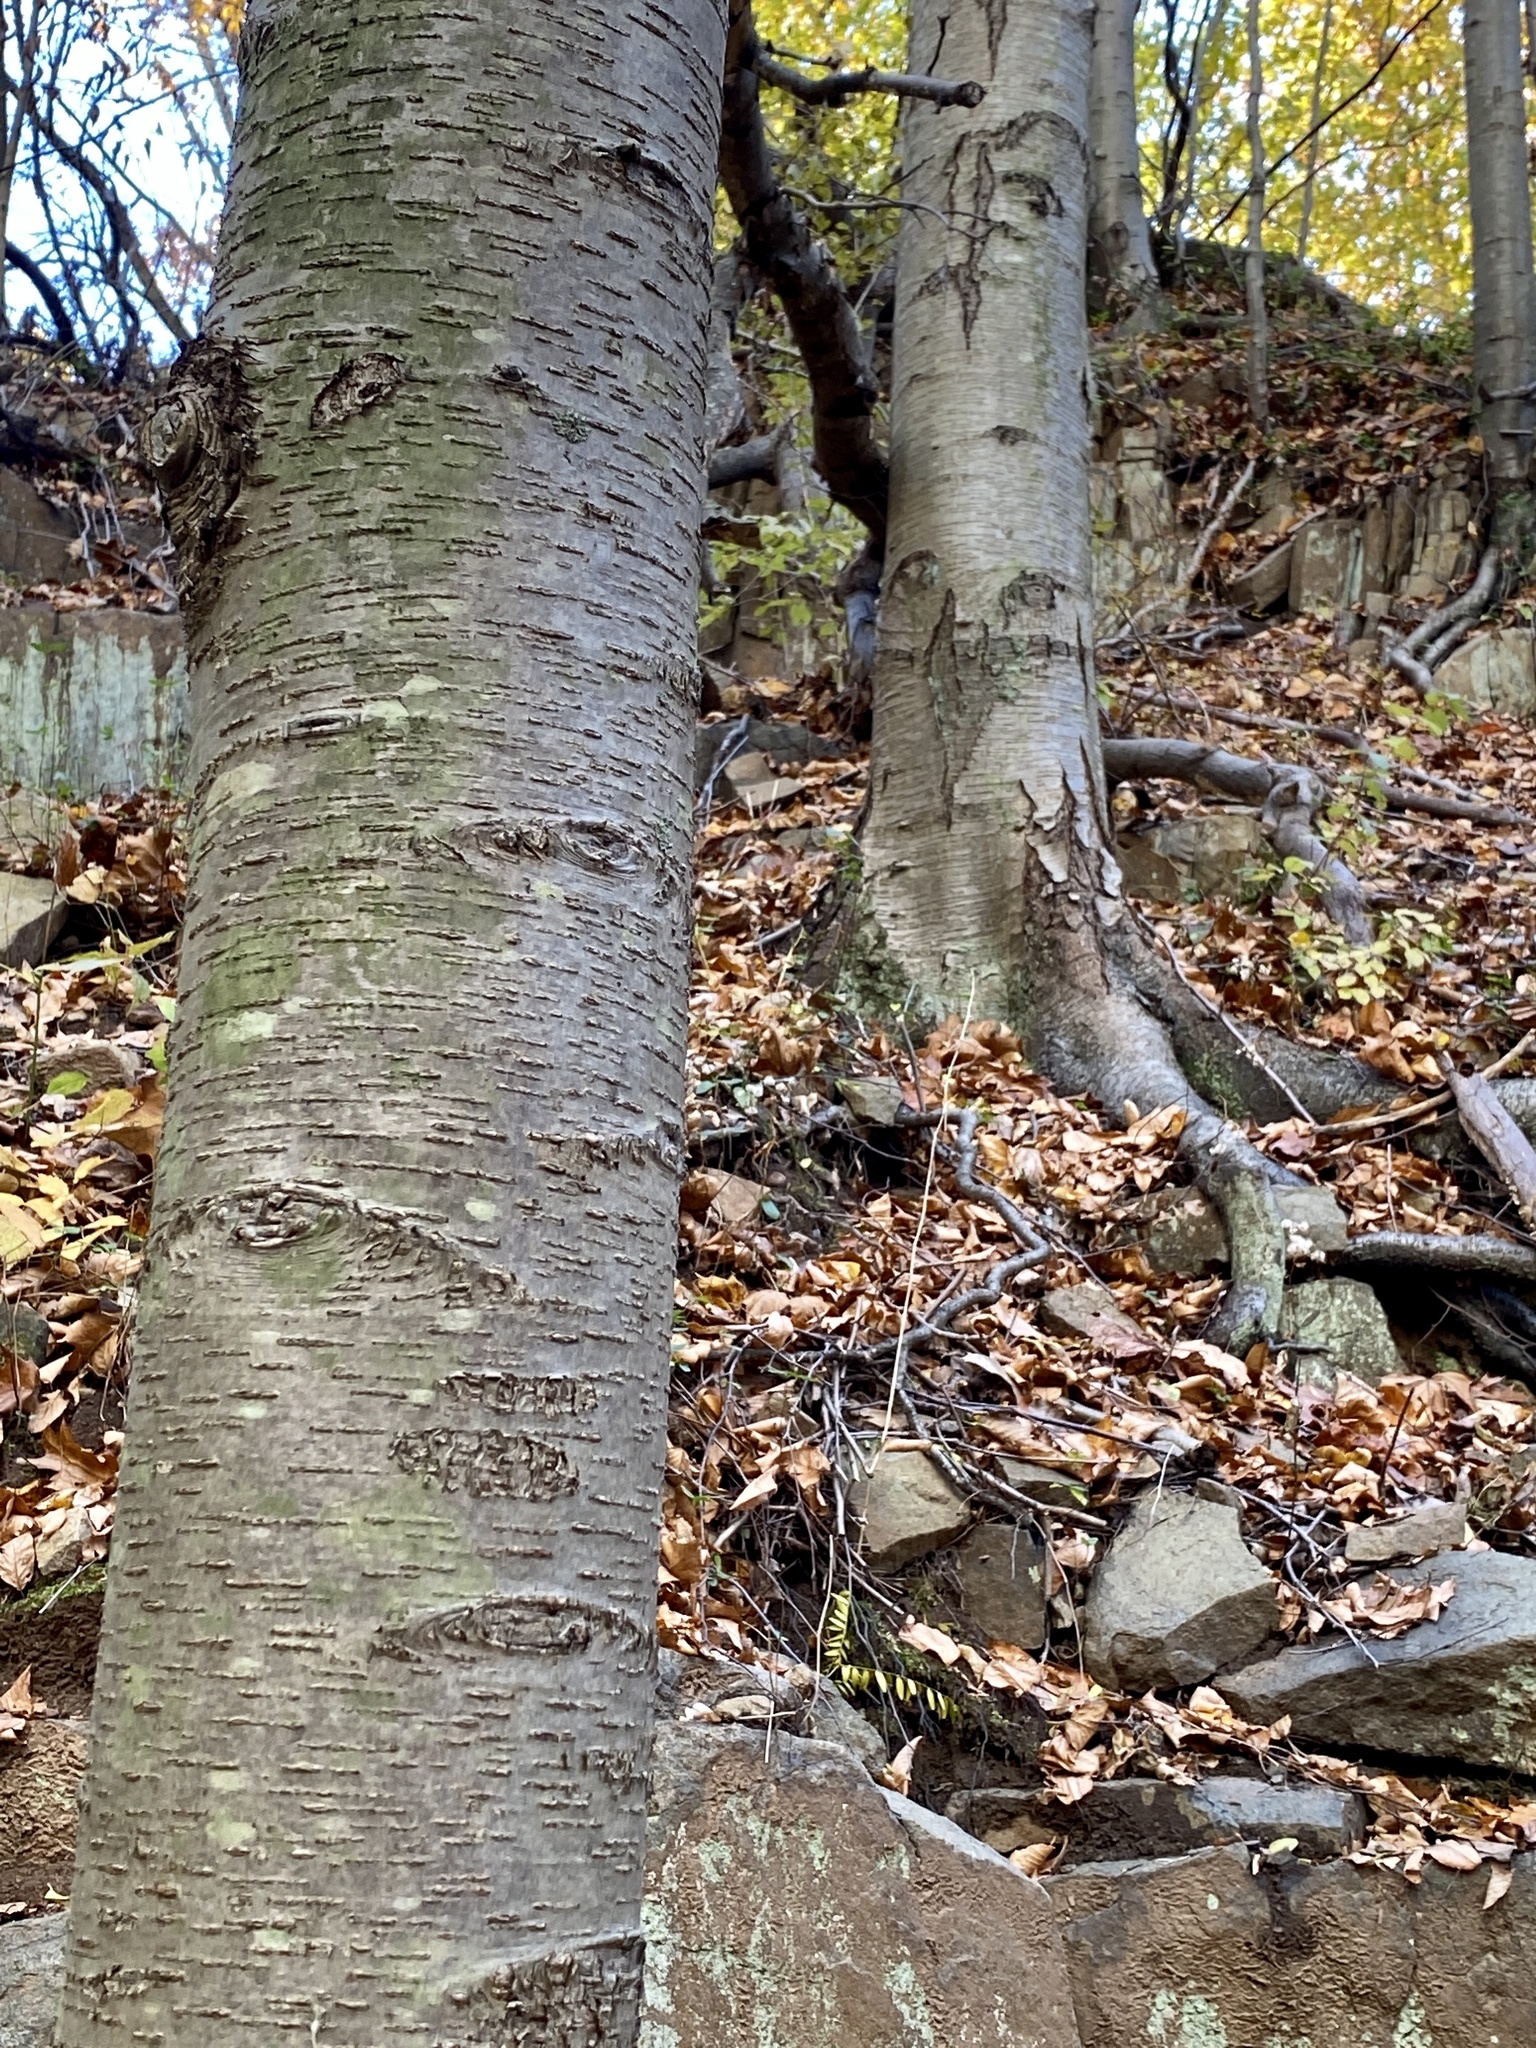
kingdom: Plantae
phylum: Tracheophyta
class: Magnoliopsida
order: Fagales
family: Betulaceae
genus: Betula
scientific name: Betula lenta
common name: Black birch
